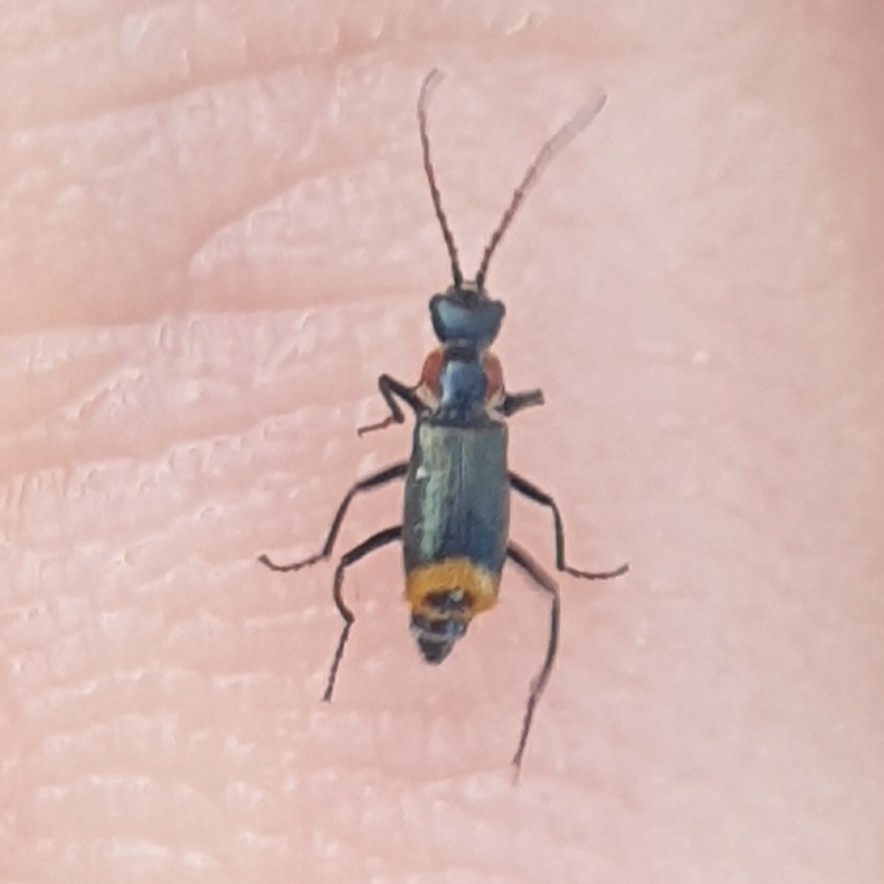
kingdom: Animalia
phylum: Arthropoda
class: Insecta
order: Coleoptera
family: Melyridae
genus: Axinotarsus
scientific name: Axinotarsus pulicarius
